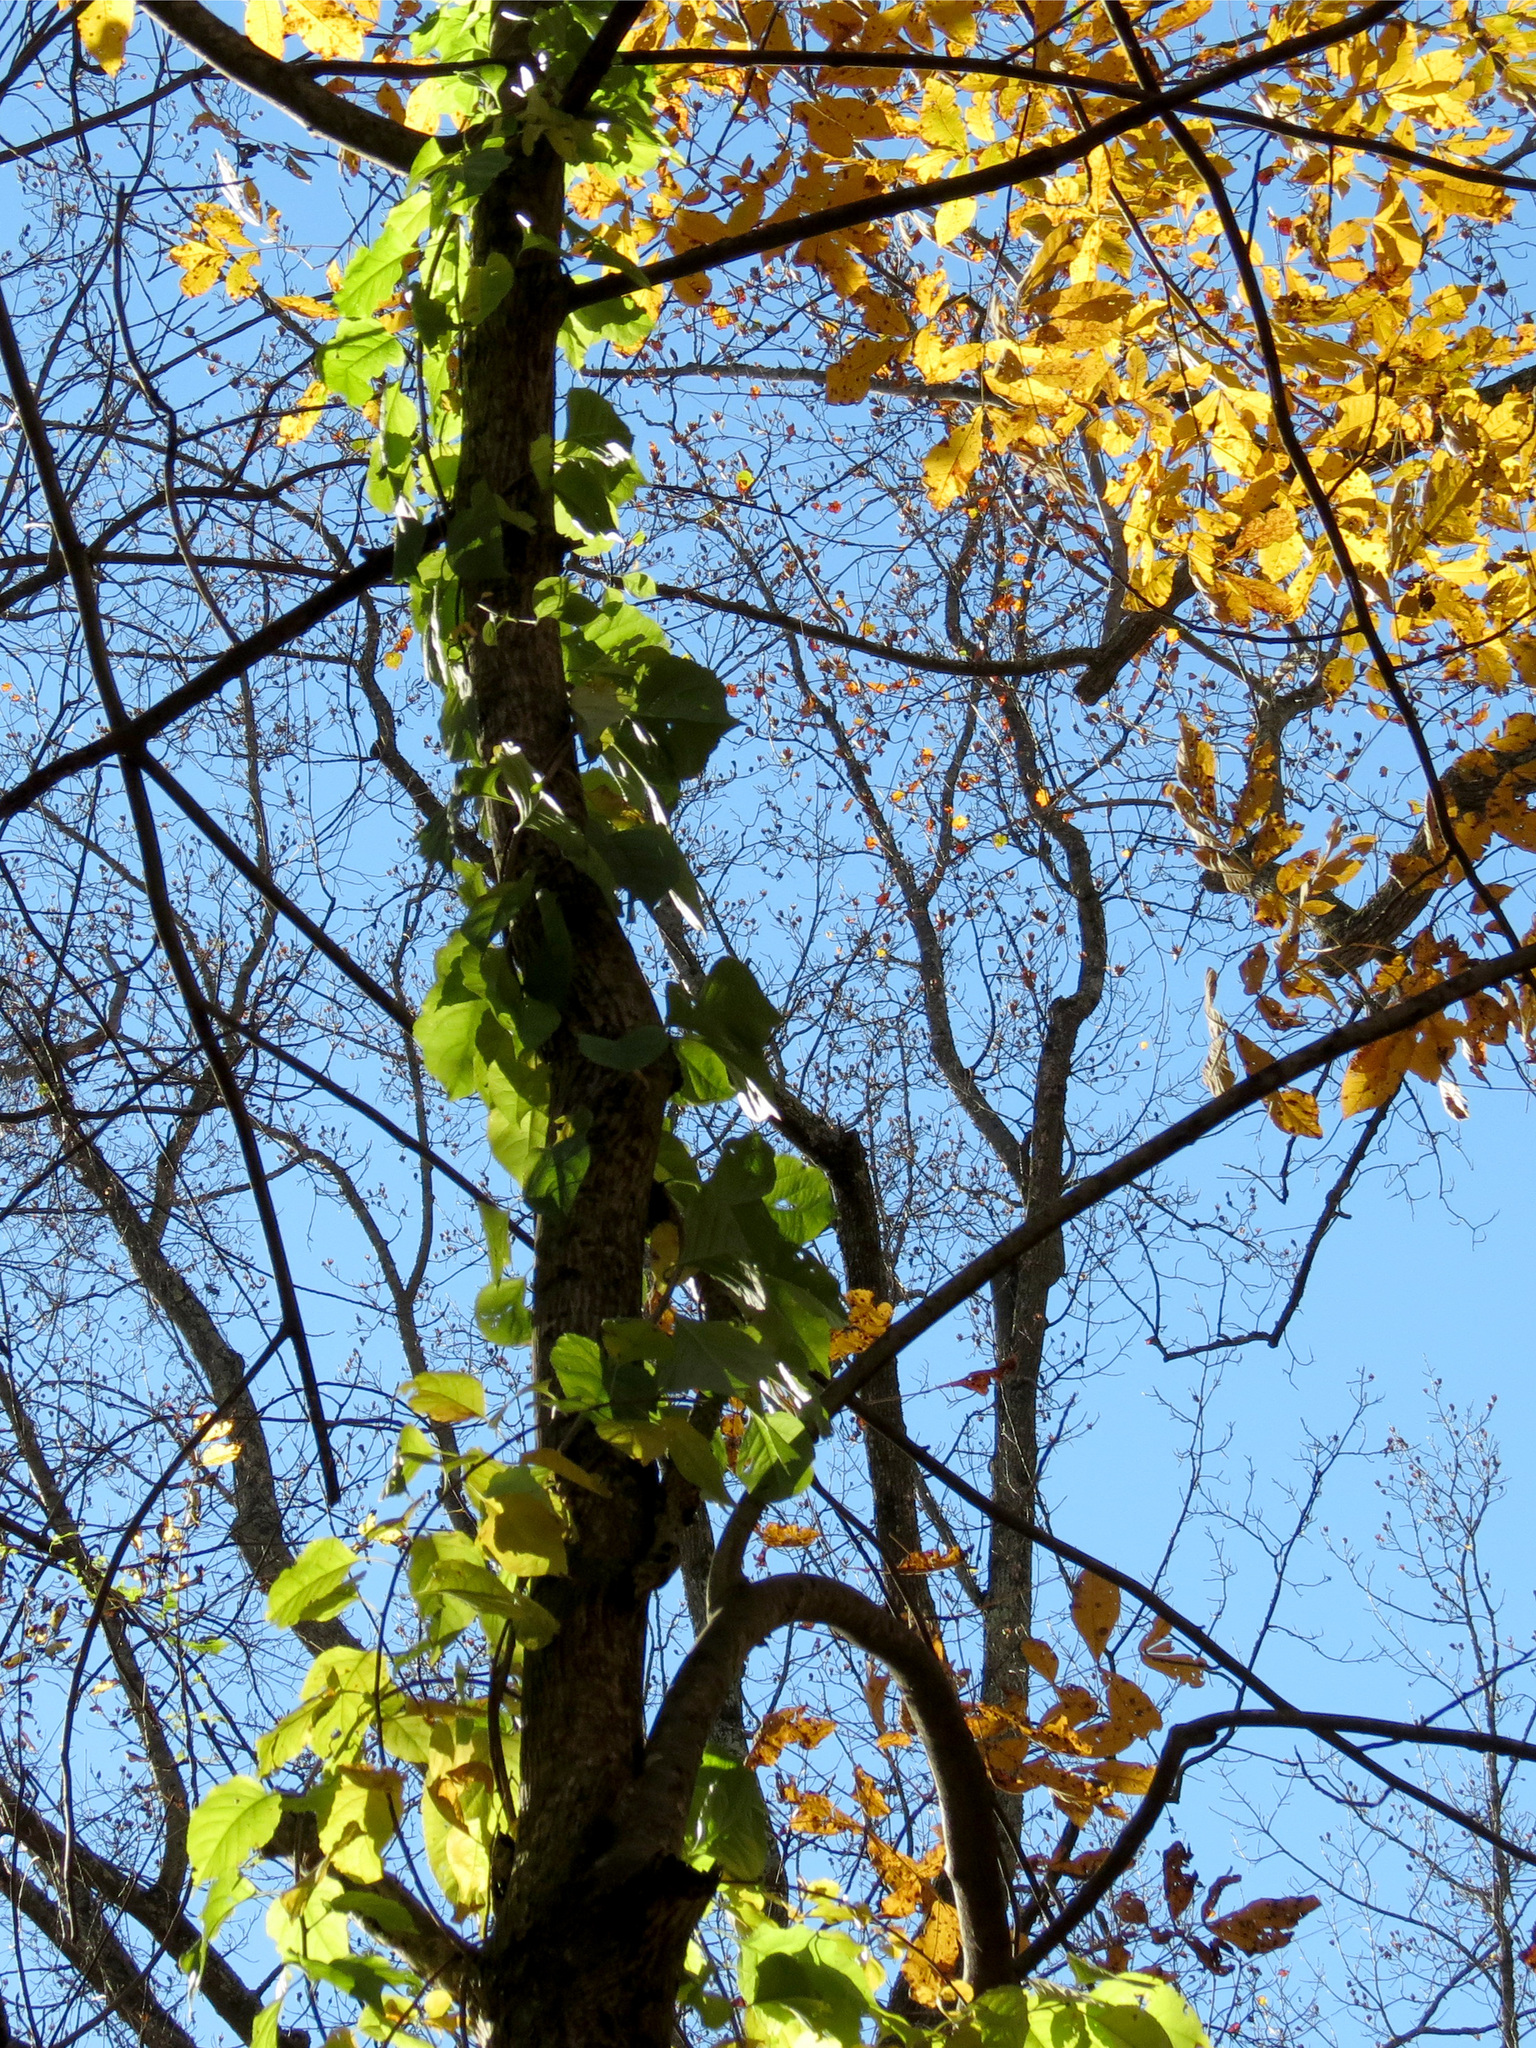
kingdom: Plantae
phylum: Tracheophyta
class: Magnoliopsida
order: Celastrales
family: Celastraceae
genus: Celastrus
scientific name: Celastrus orbiculatus
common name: Oriental bittersweet
